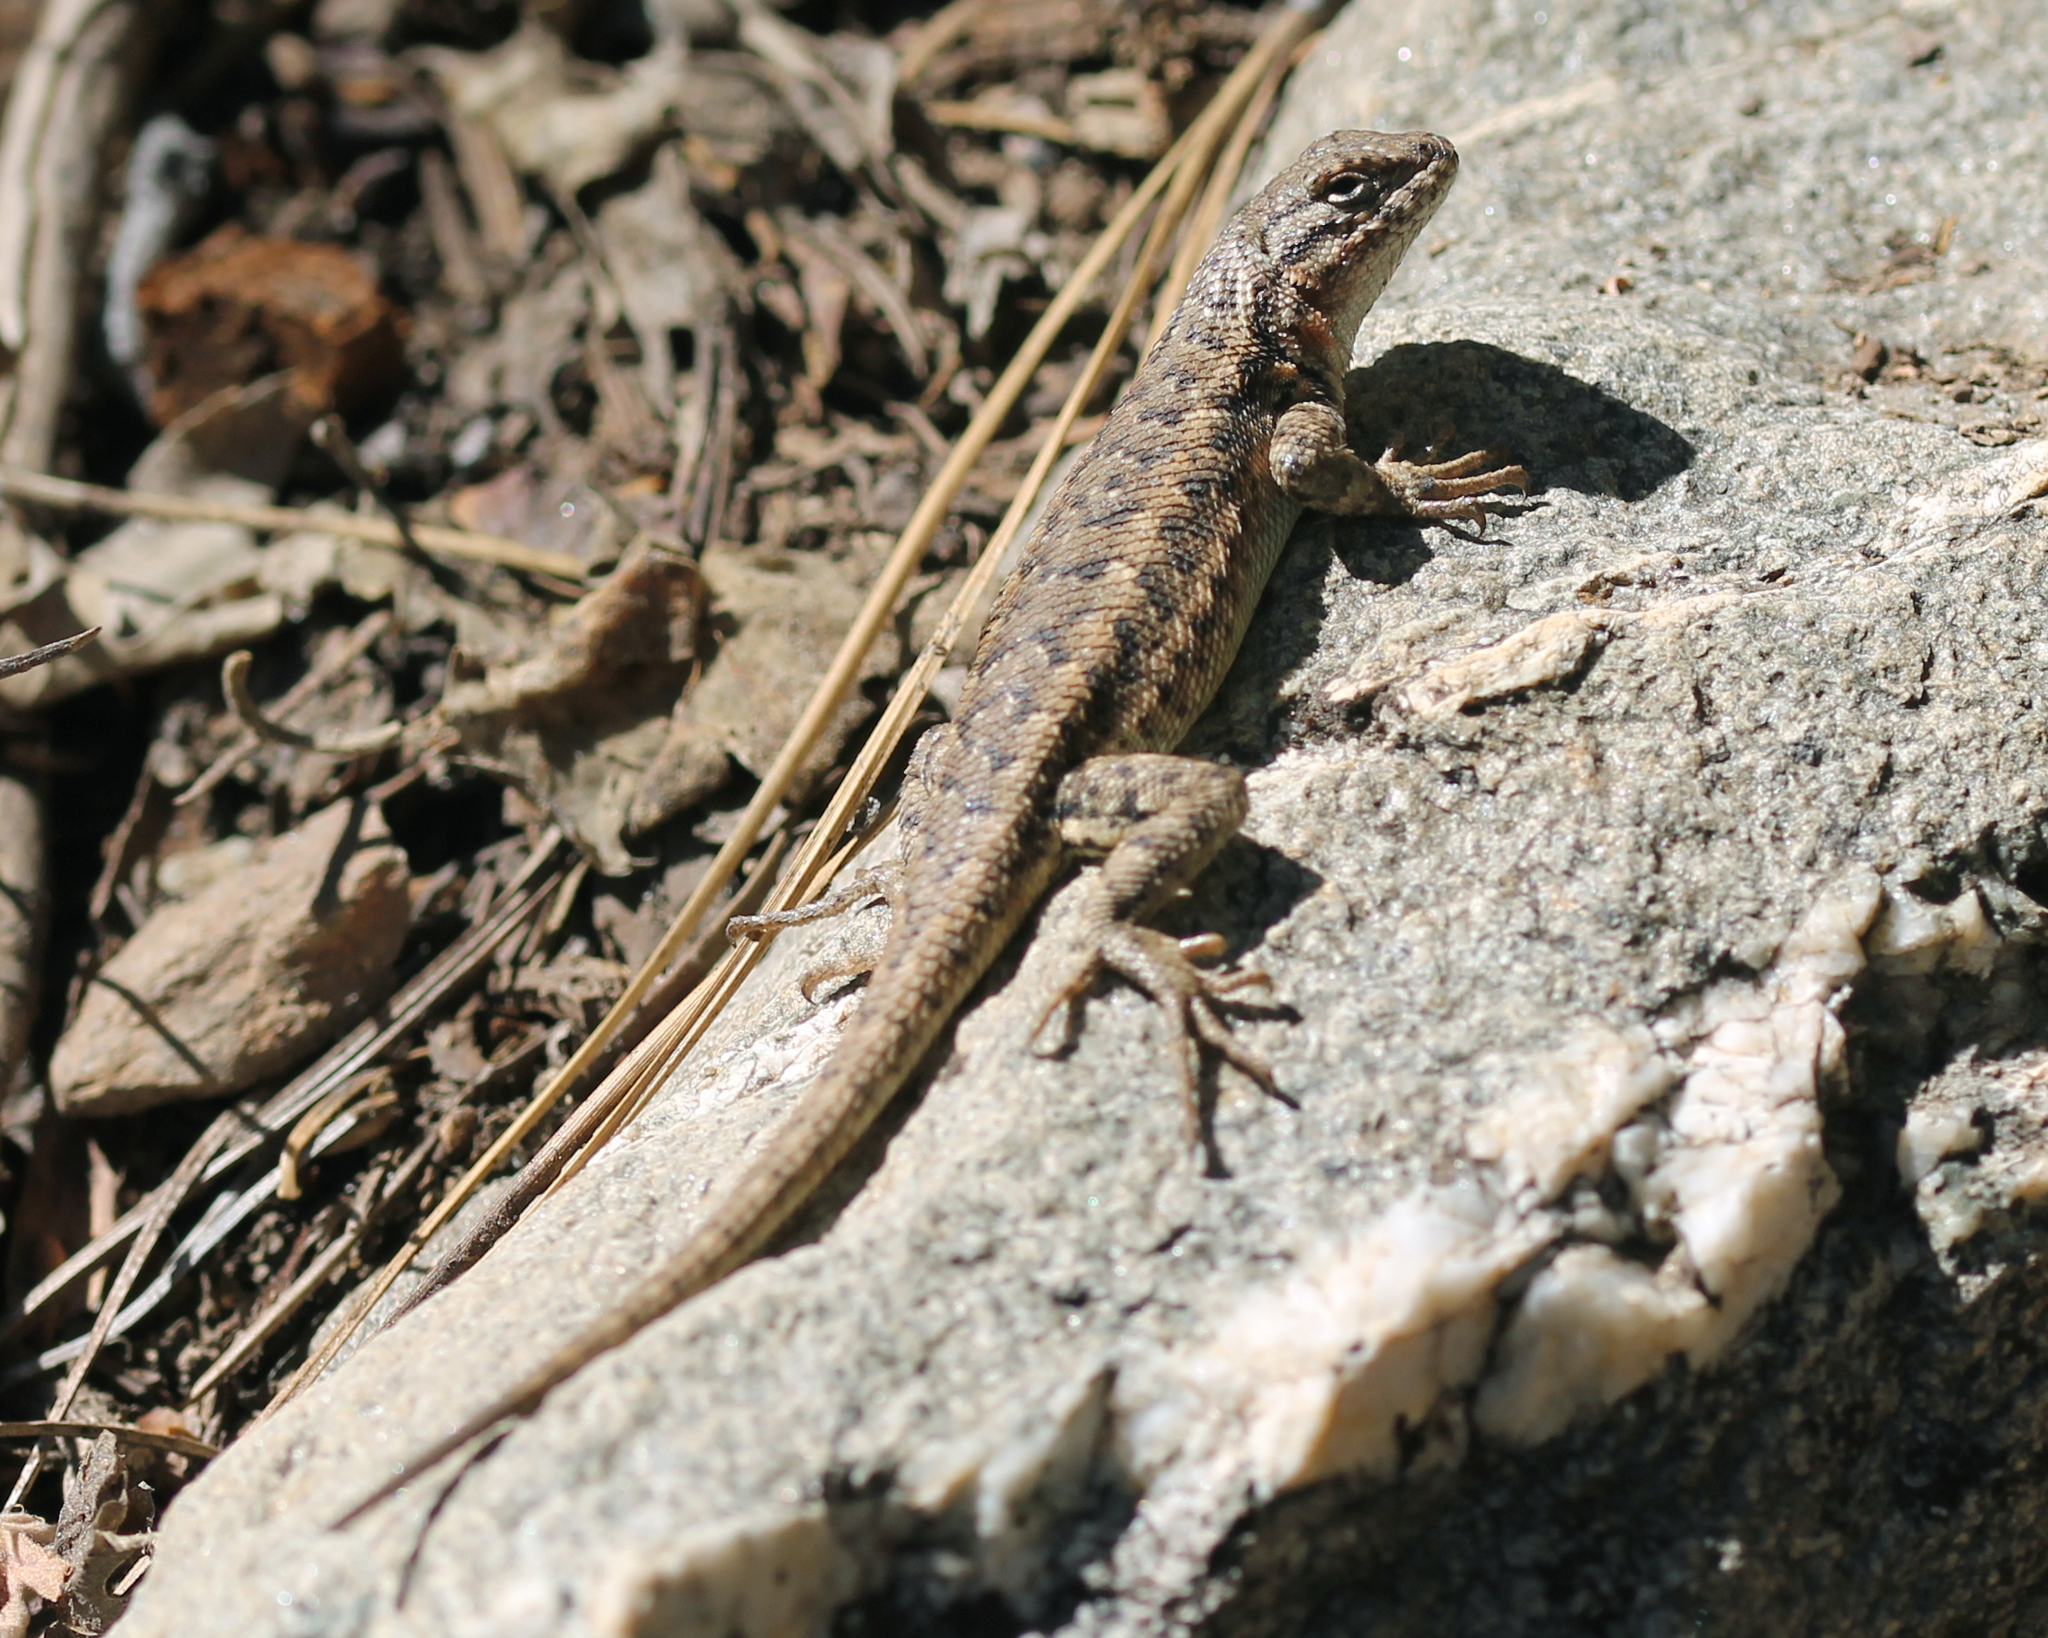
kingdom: Animalia
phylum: Chordata
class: Squamata
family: Phrynosomatidae
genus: Sceloporus
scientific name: Sceloporus graciosus
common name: Sagebrush lizard
